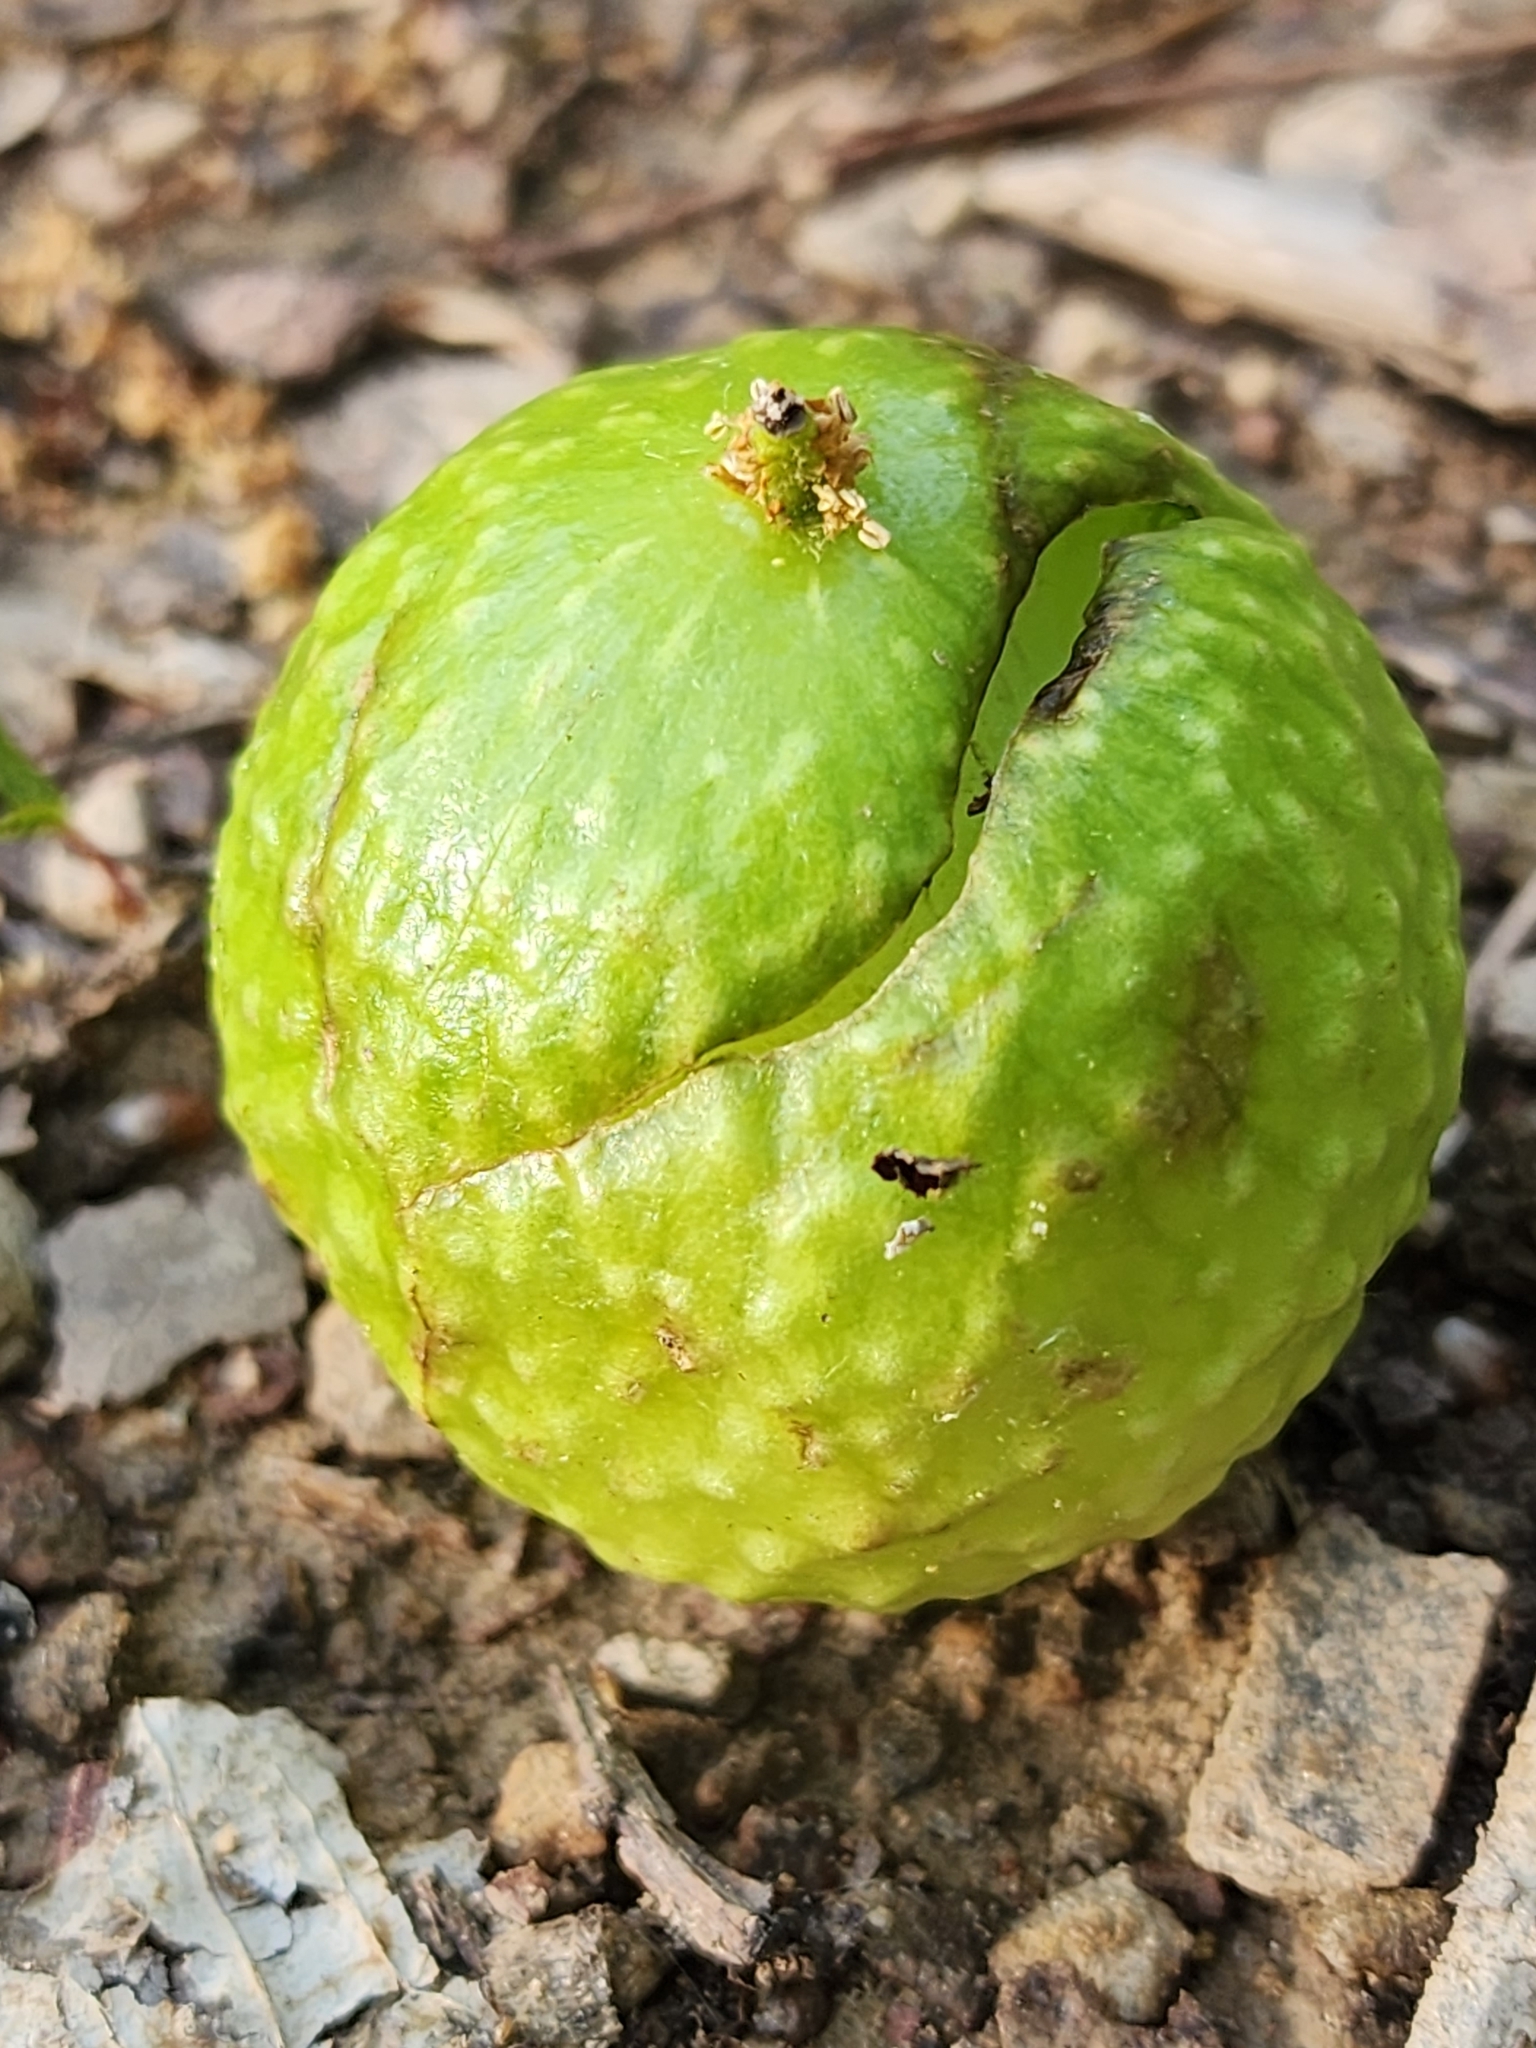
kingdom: Animalia
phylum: Arthropoda
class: Insecta
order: Hymenoptera
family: Cynipidae
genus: Amphibolips
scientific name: Amphibolips
